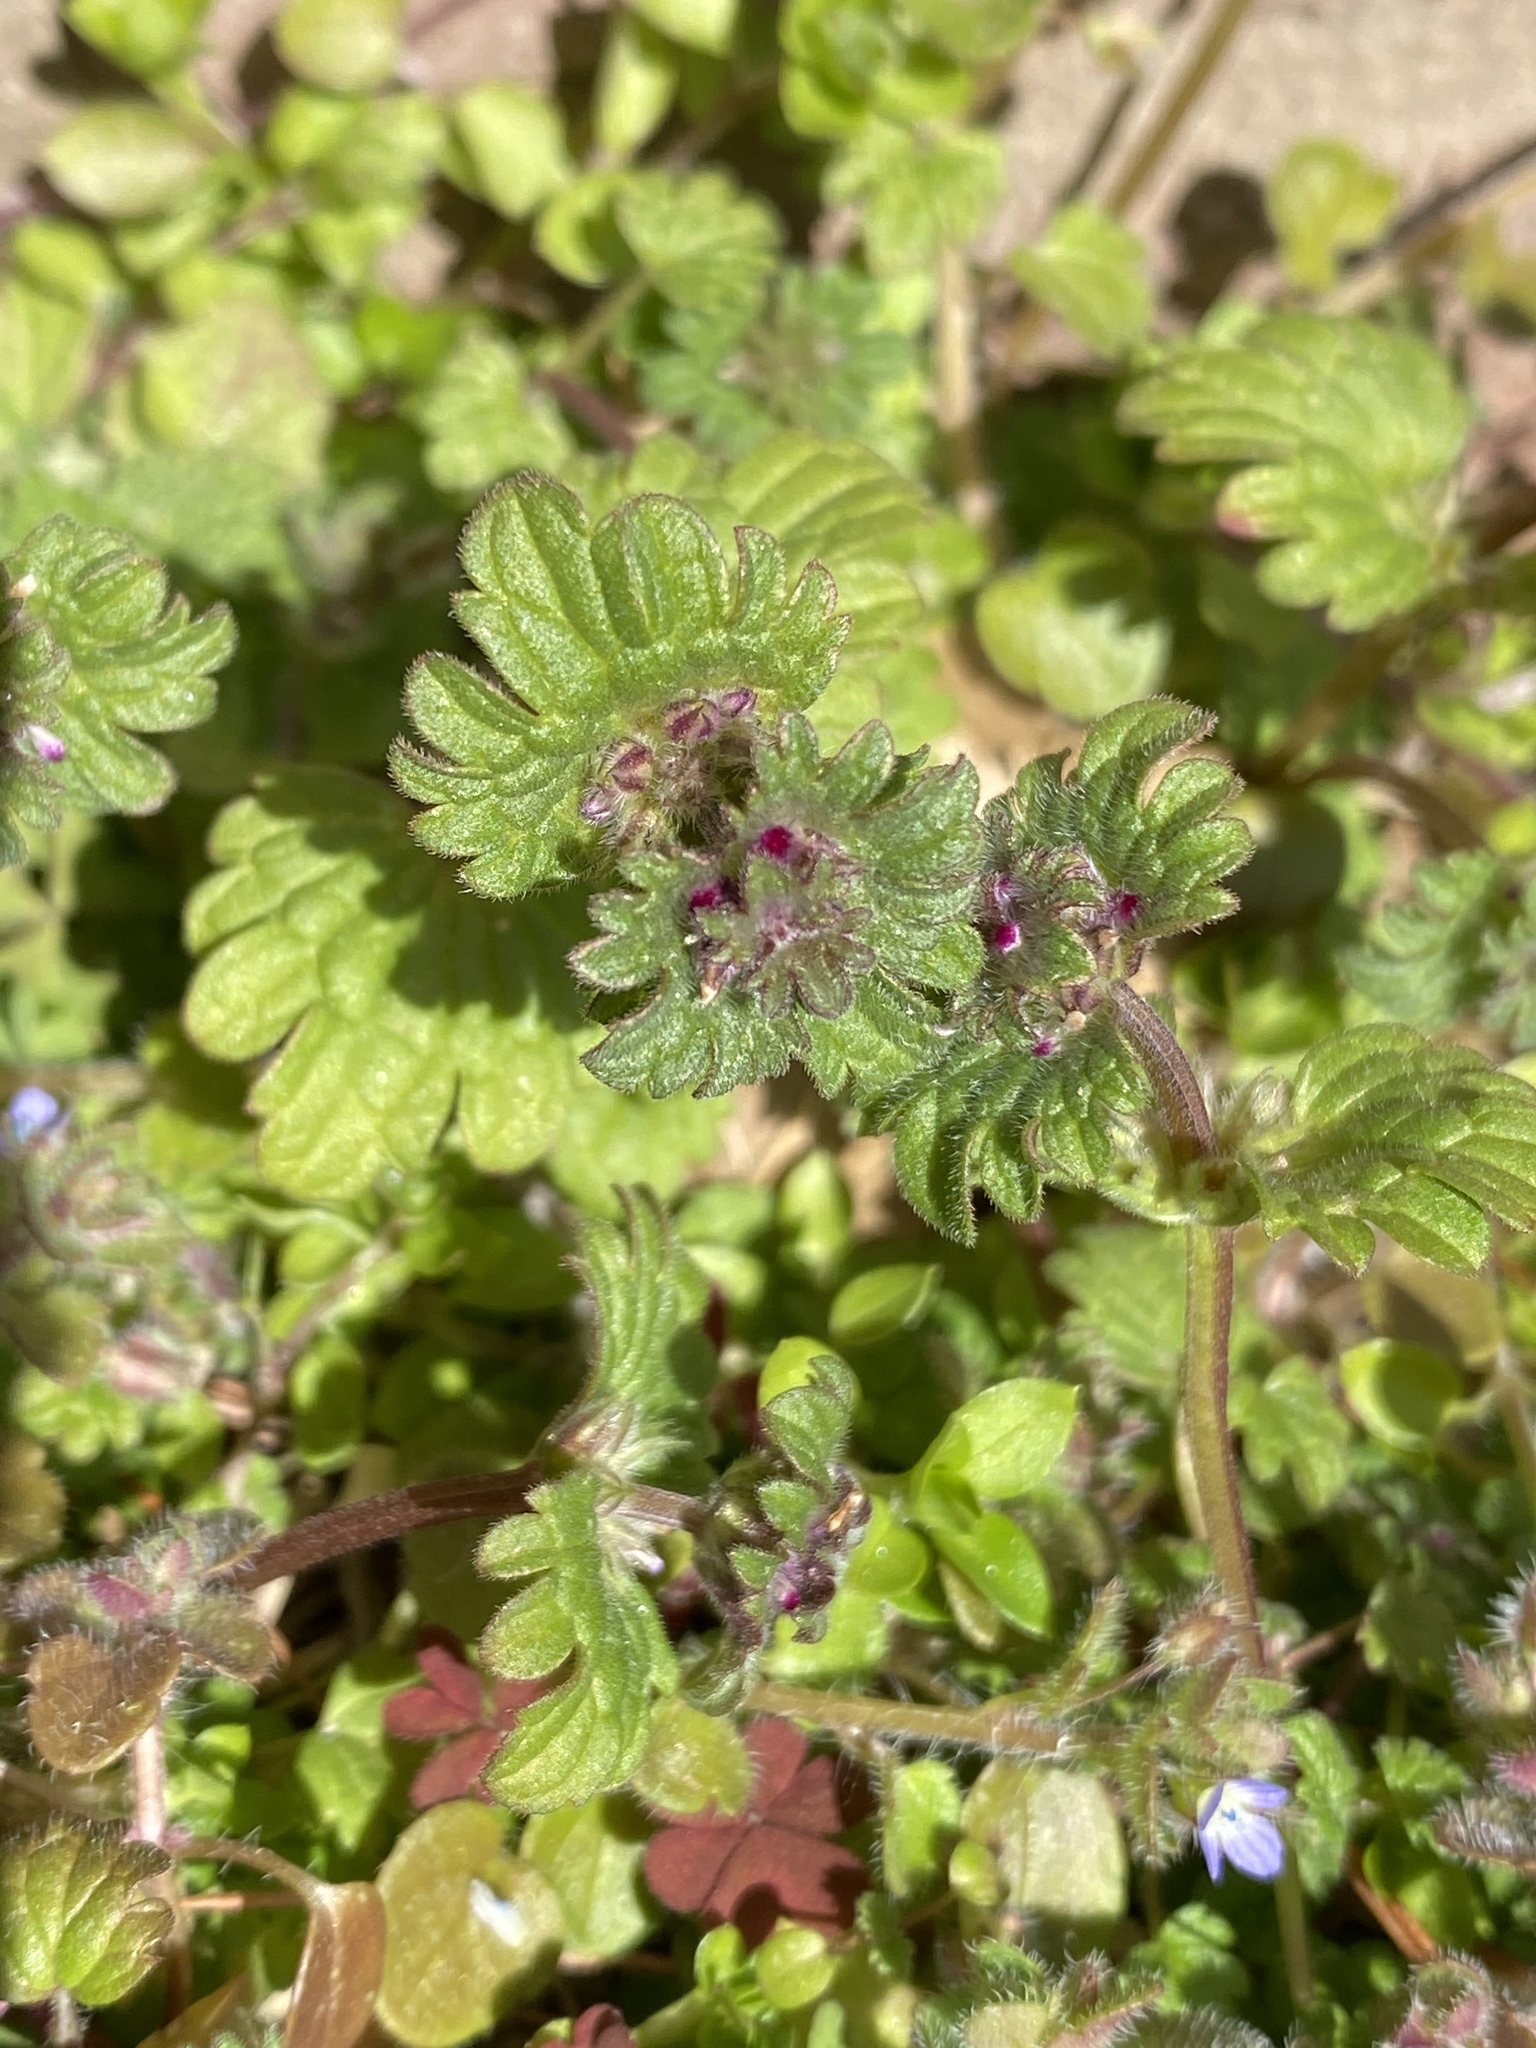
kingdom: Plantae
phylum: Tracheophyta
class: Magnoliopsida
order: Lamiales
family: Lamiaceae
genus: Lamium
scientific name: Lamium amplexicaule
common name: Henbit dead-nettle
